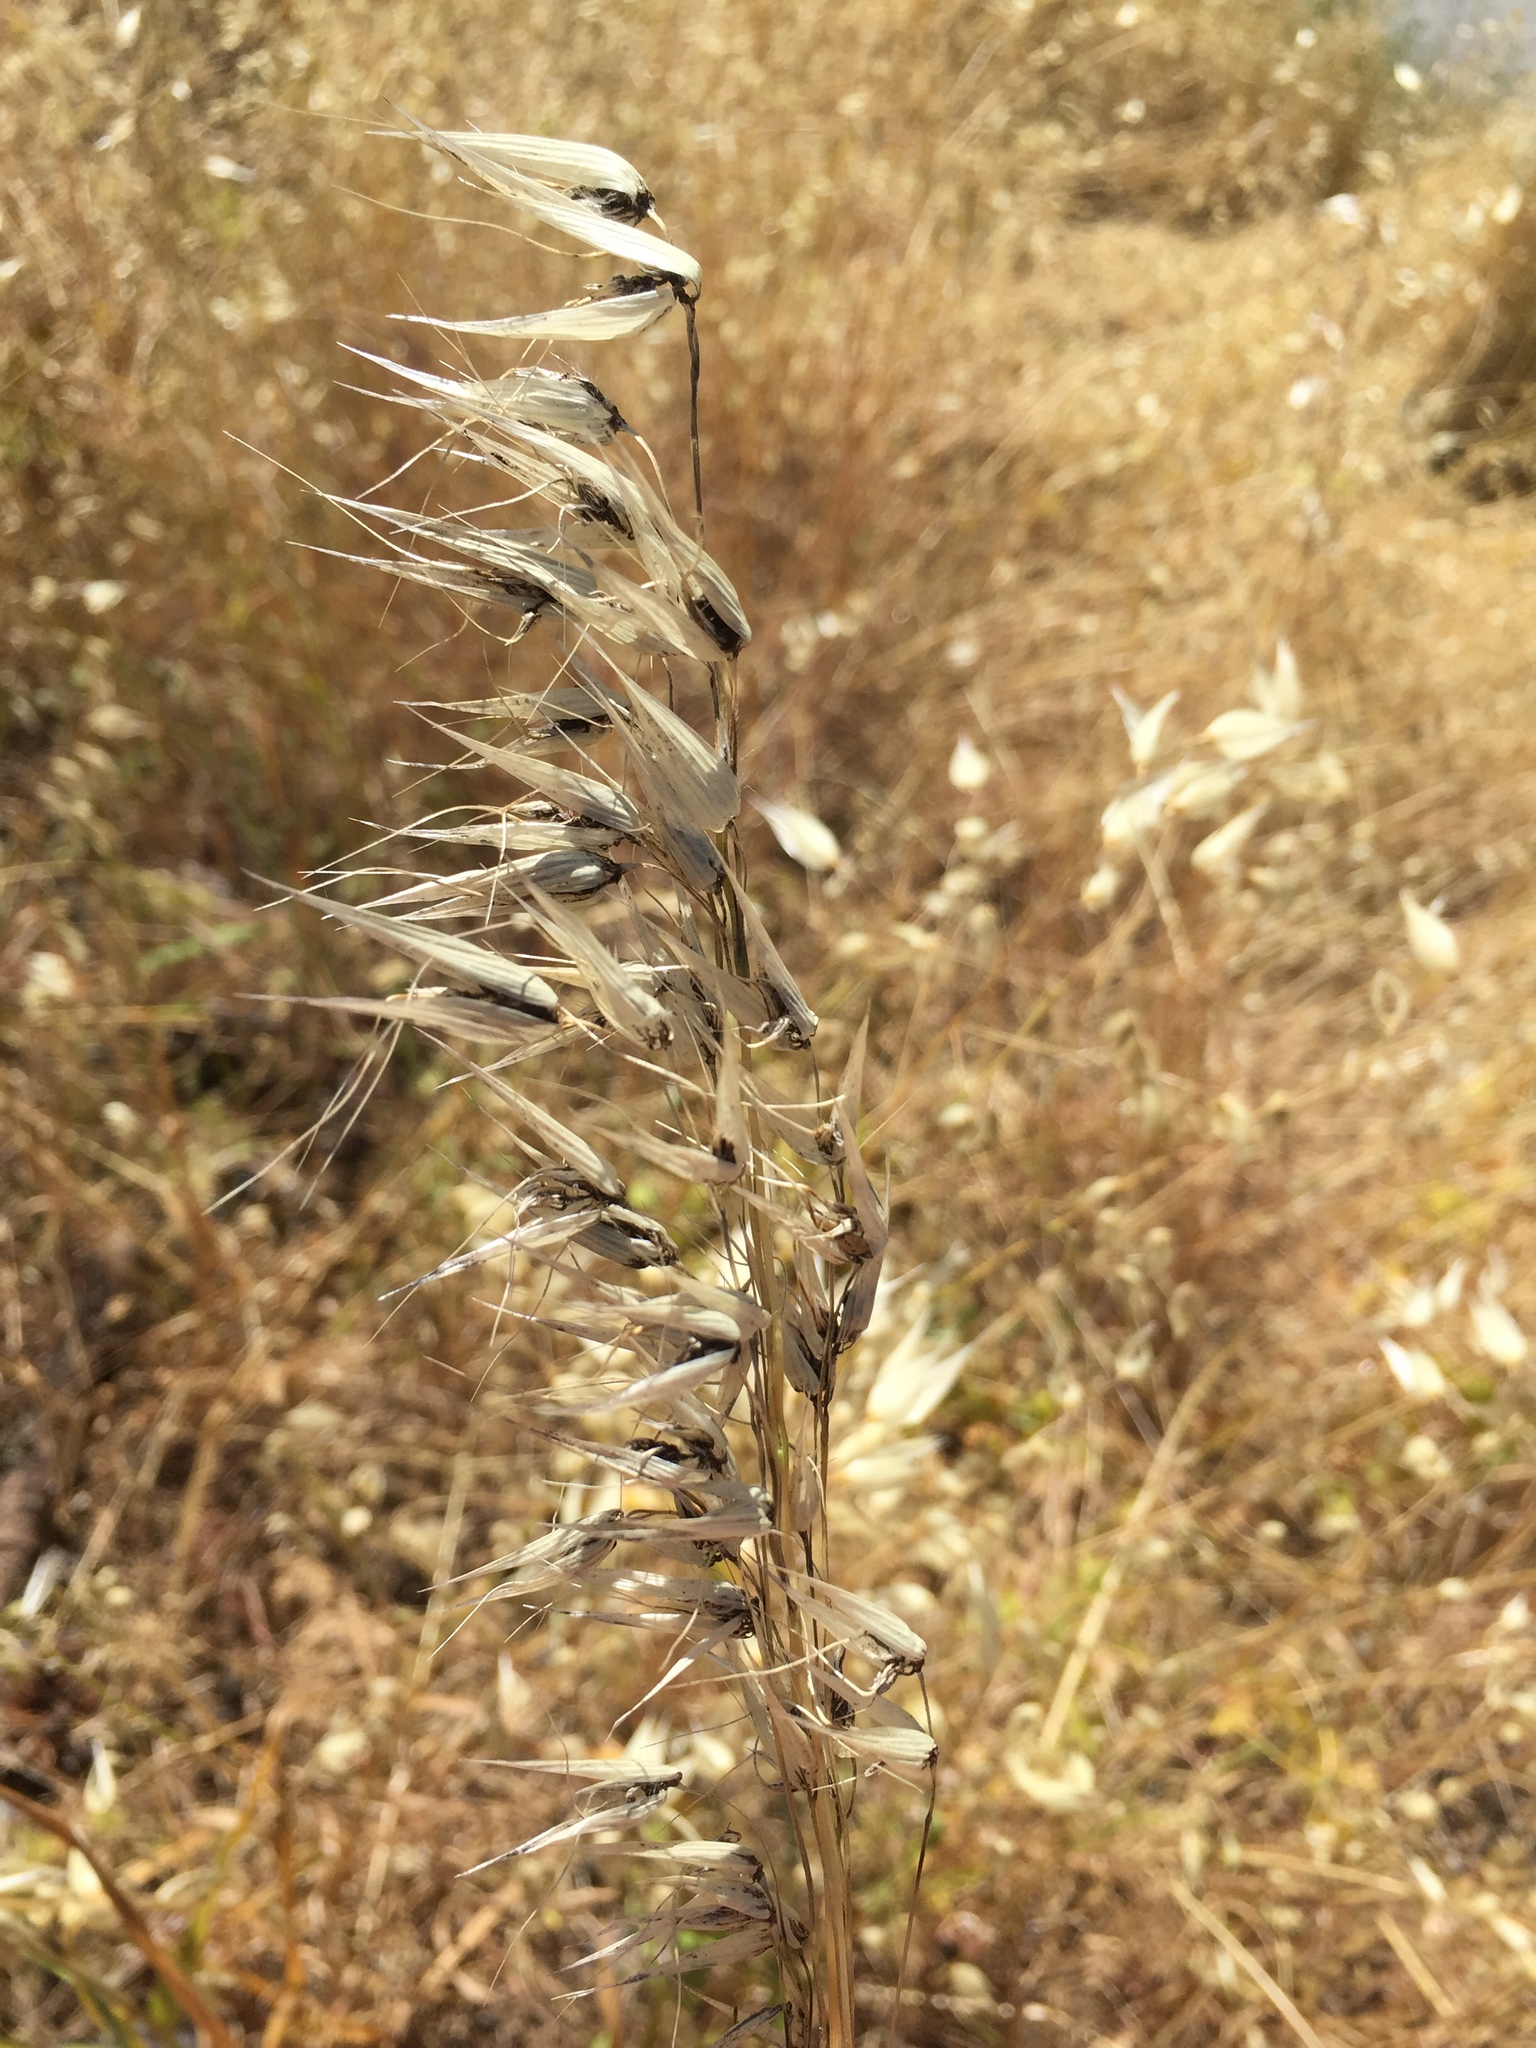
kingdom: Fungi
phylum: Basidiomycota
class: Ustilaginomycetes
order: Ustilaginales
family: Ustilaginaceae
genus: Ustilago
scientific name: Ustilago avenae
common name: Loose smut of oats & oat grass
